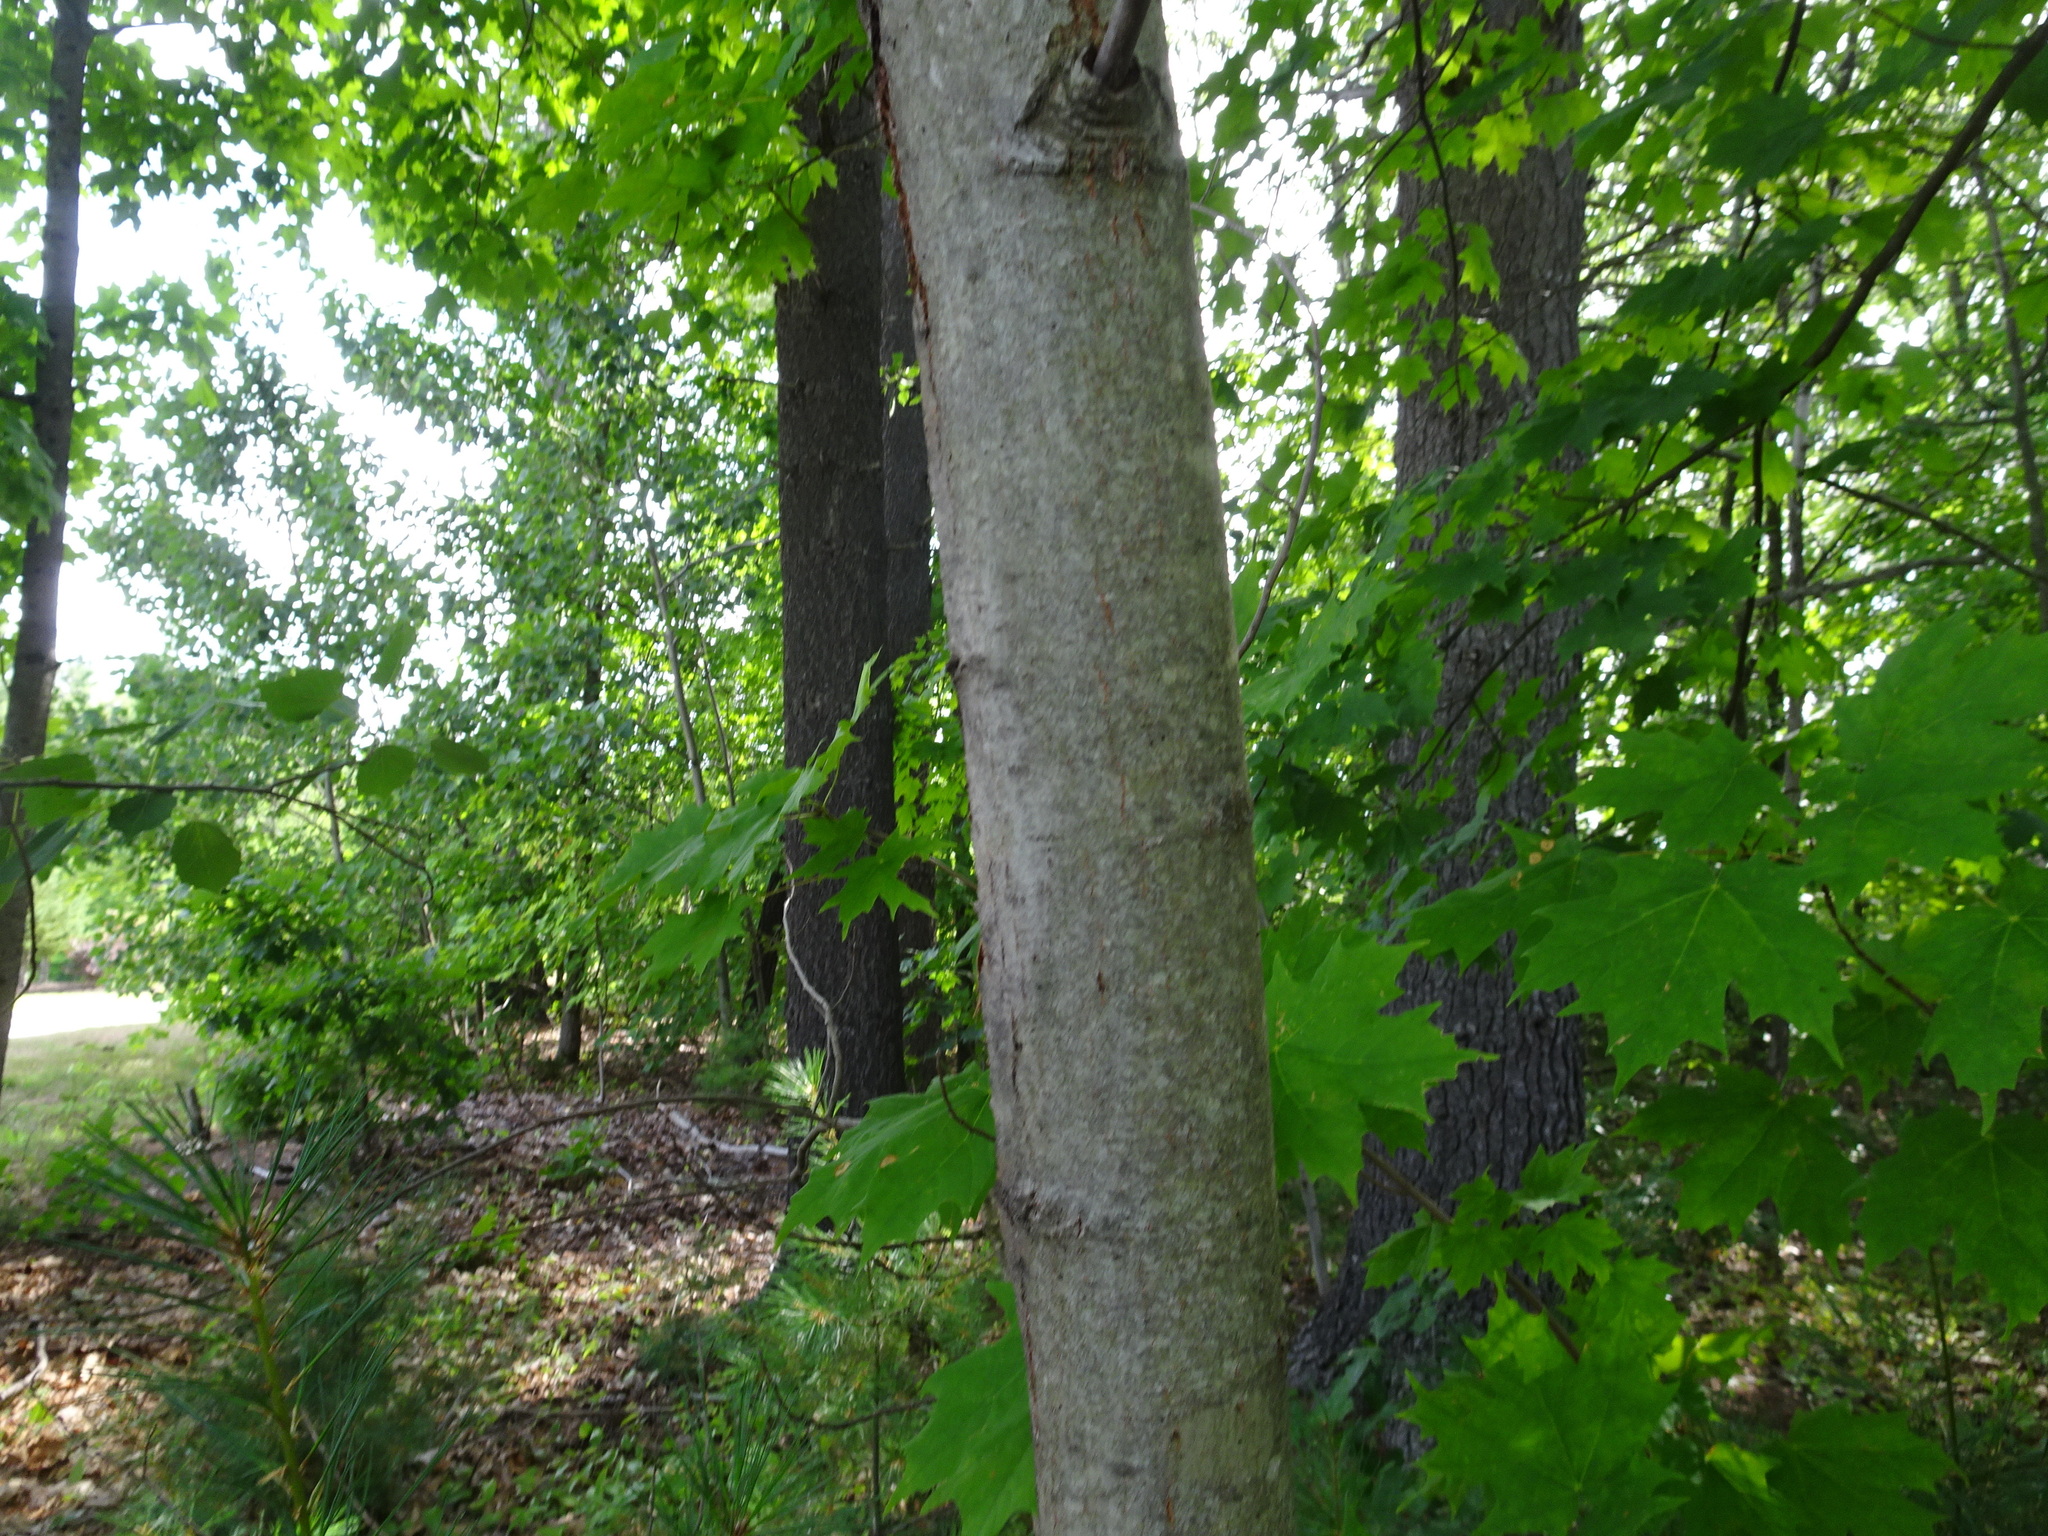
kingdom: Plantae
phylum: Tracheophyta
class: Magnoliopsida
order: Sapindales
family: Sapindaceae
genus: Acer
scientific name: Acer saccharum
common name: Sugar maple
